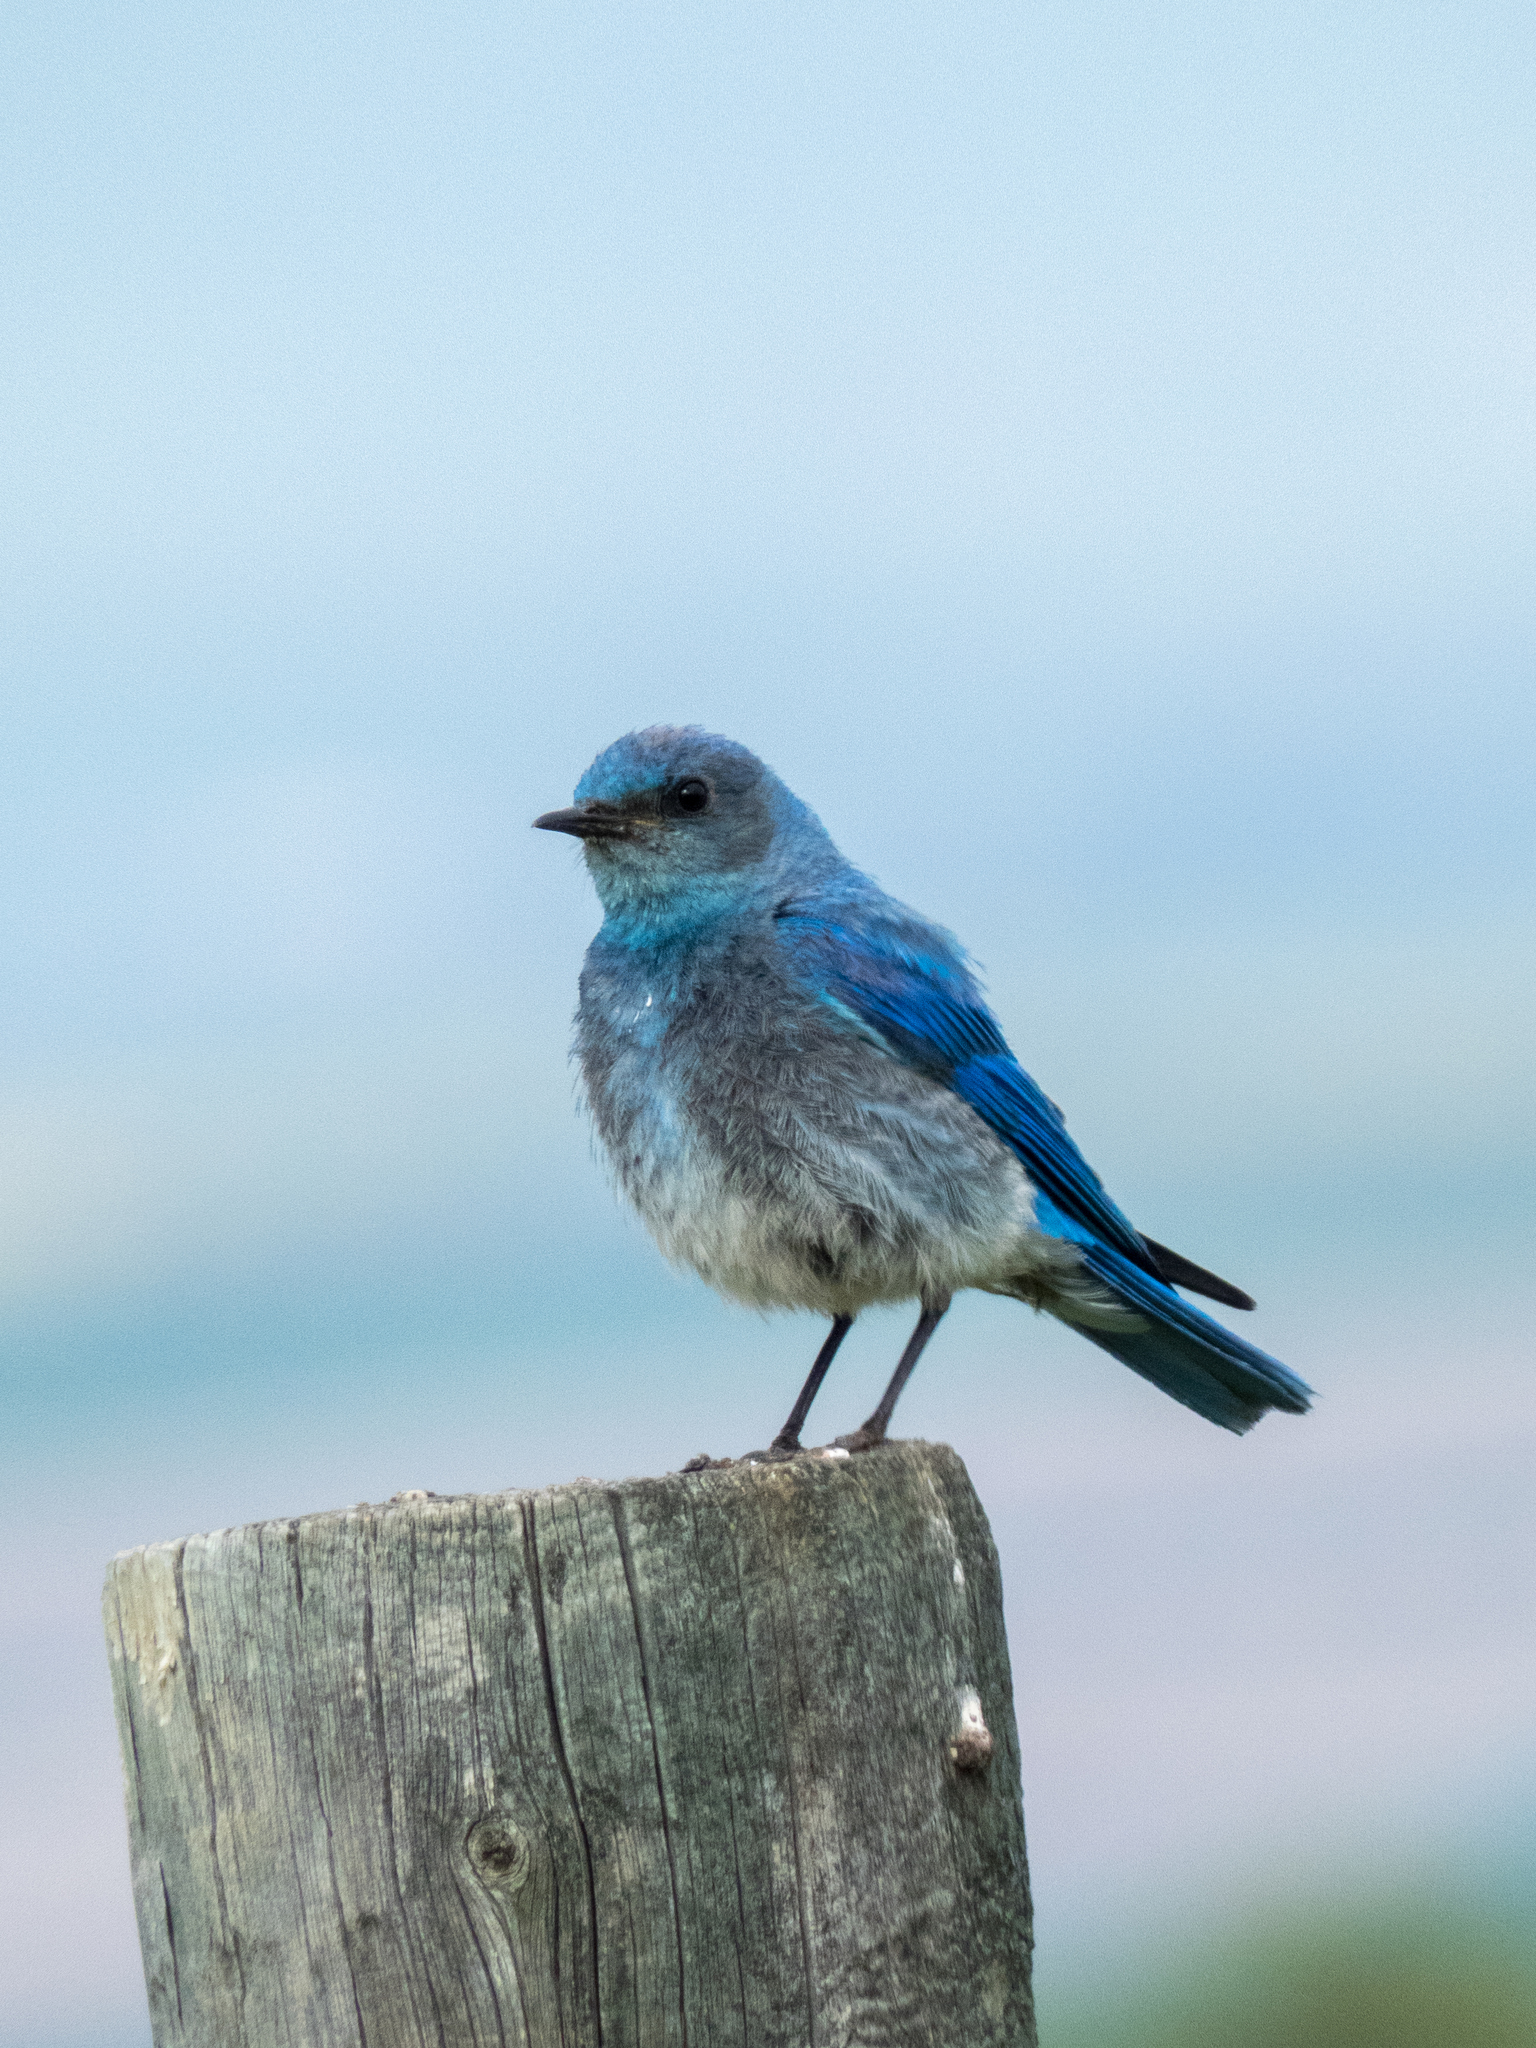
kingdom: Animalia
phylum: Chordata
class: Aves
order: Passeriformes
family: Turdidae
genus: Sialia
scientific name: Sialia currucoides
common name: Mountain bluebird
